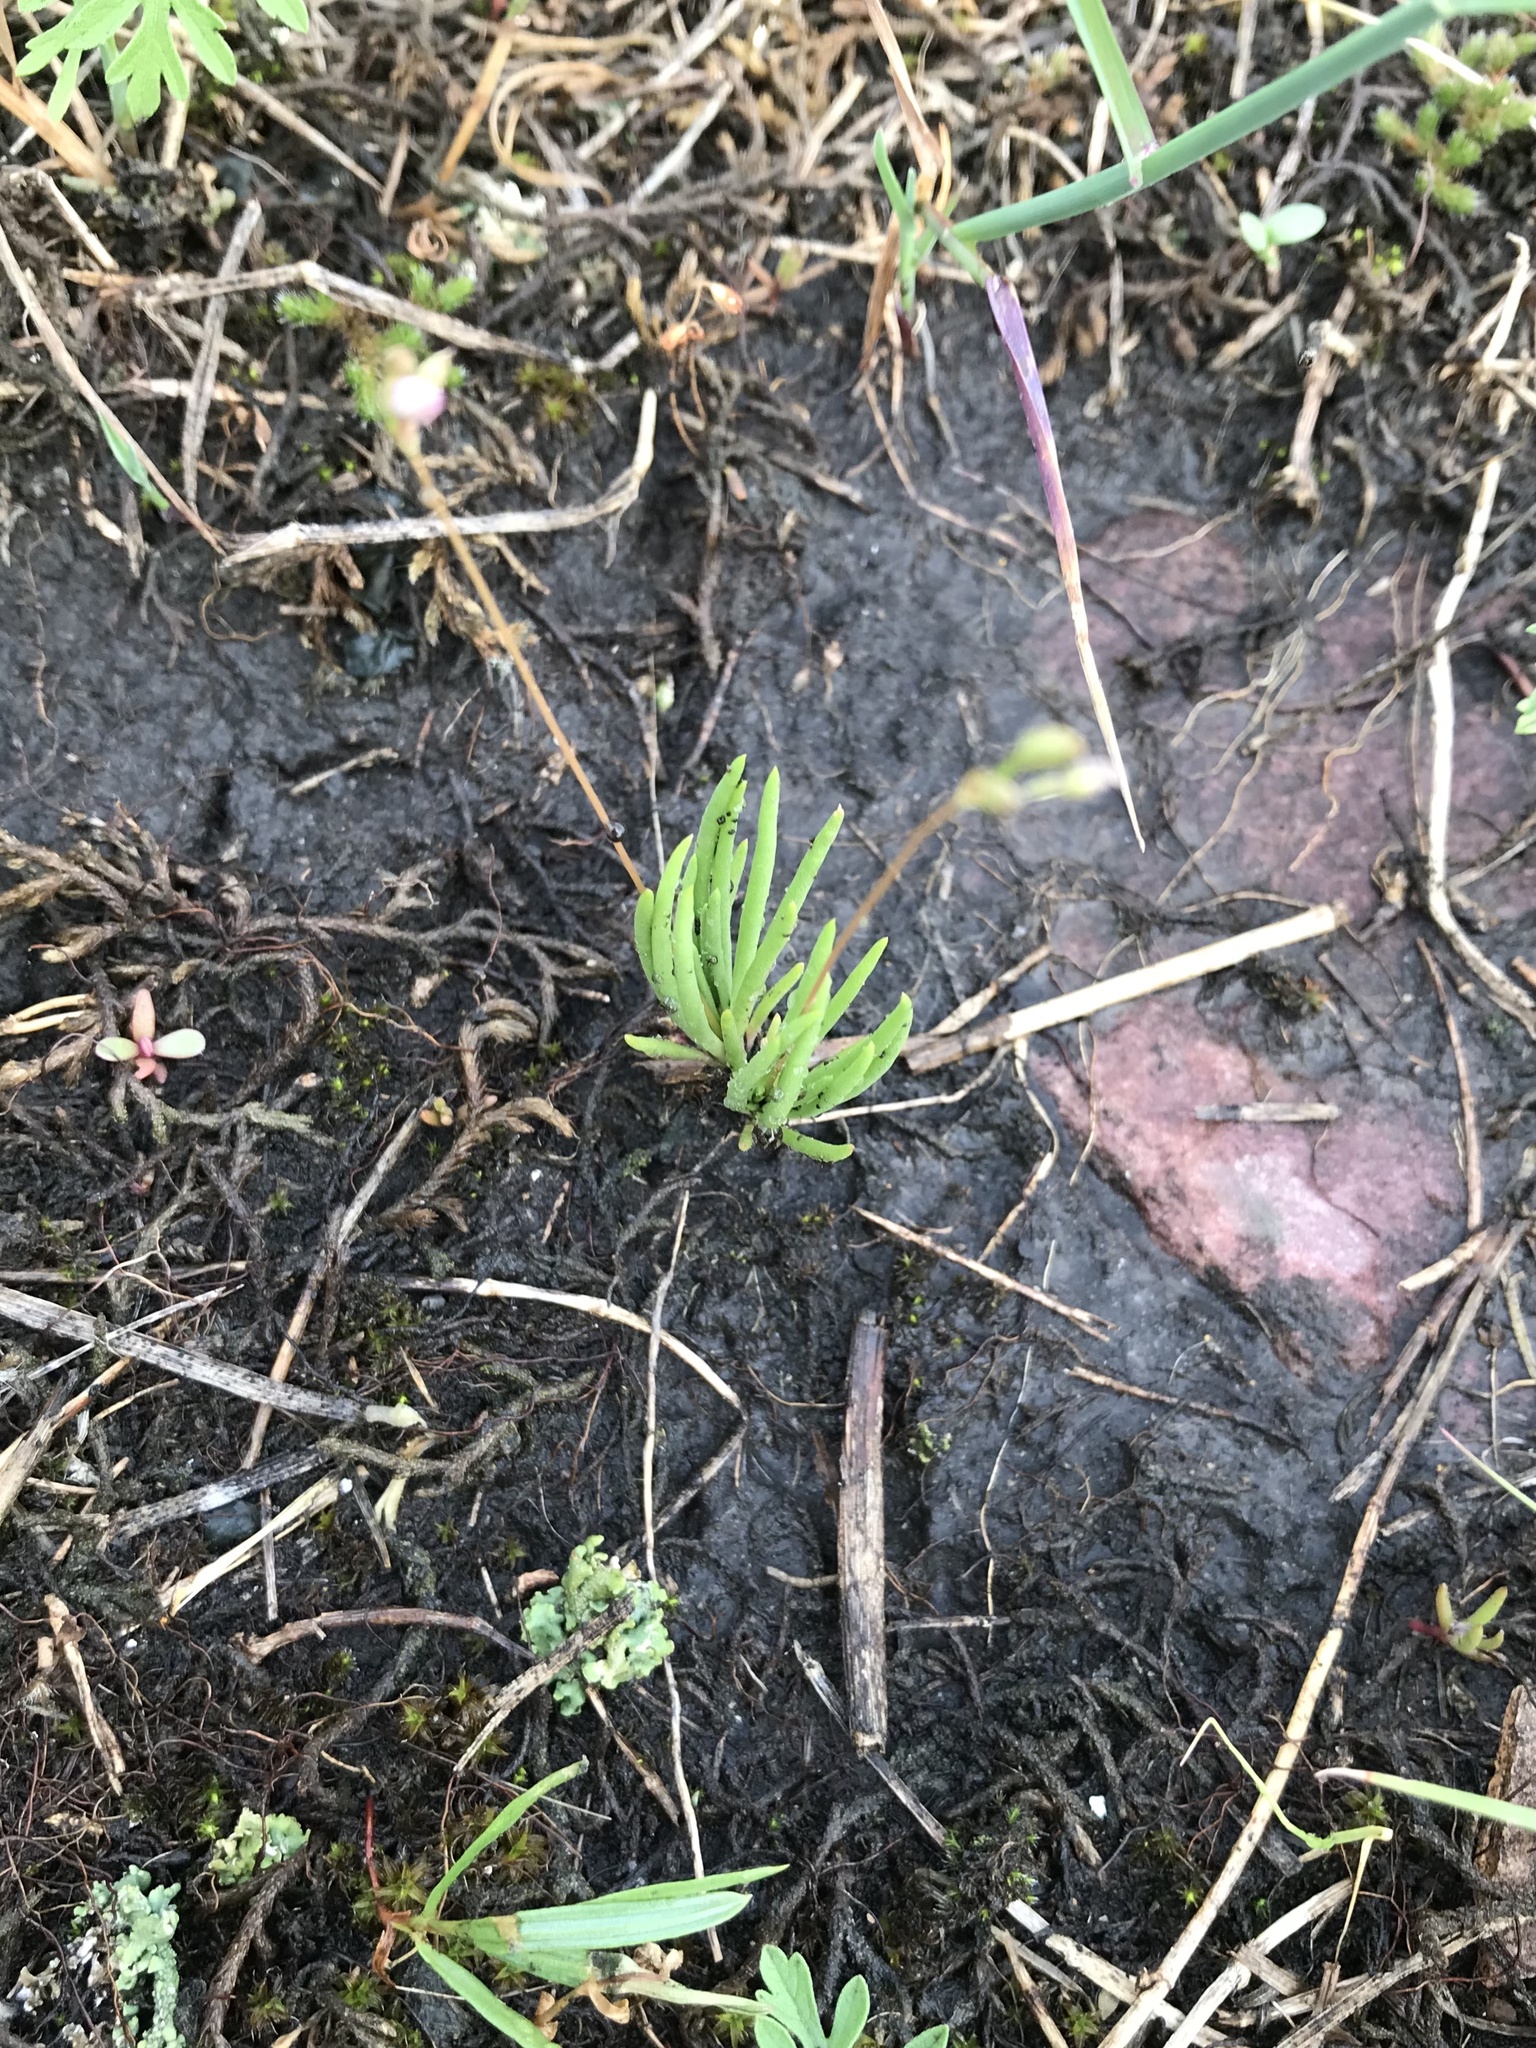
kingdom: Plantae
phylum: Tracheophyta
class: Magnoliopsida
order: Caryophyllales
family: Montiaceae
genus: Phemeranthus
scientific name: Phemeranthus parviflorus
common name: Sunbright
